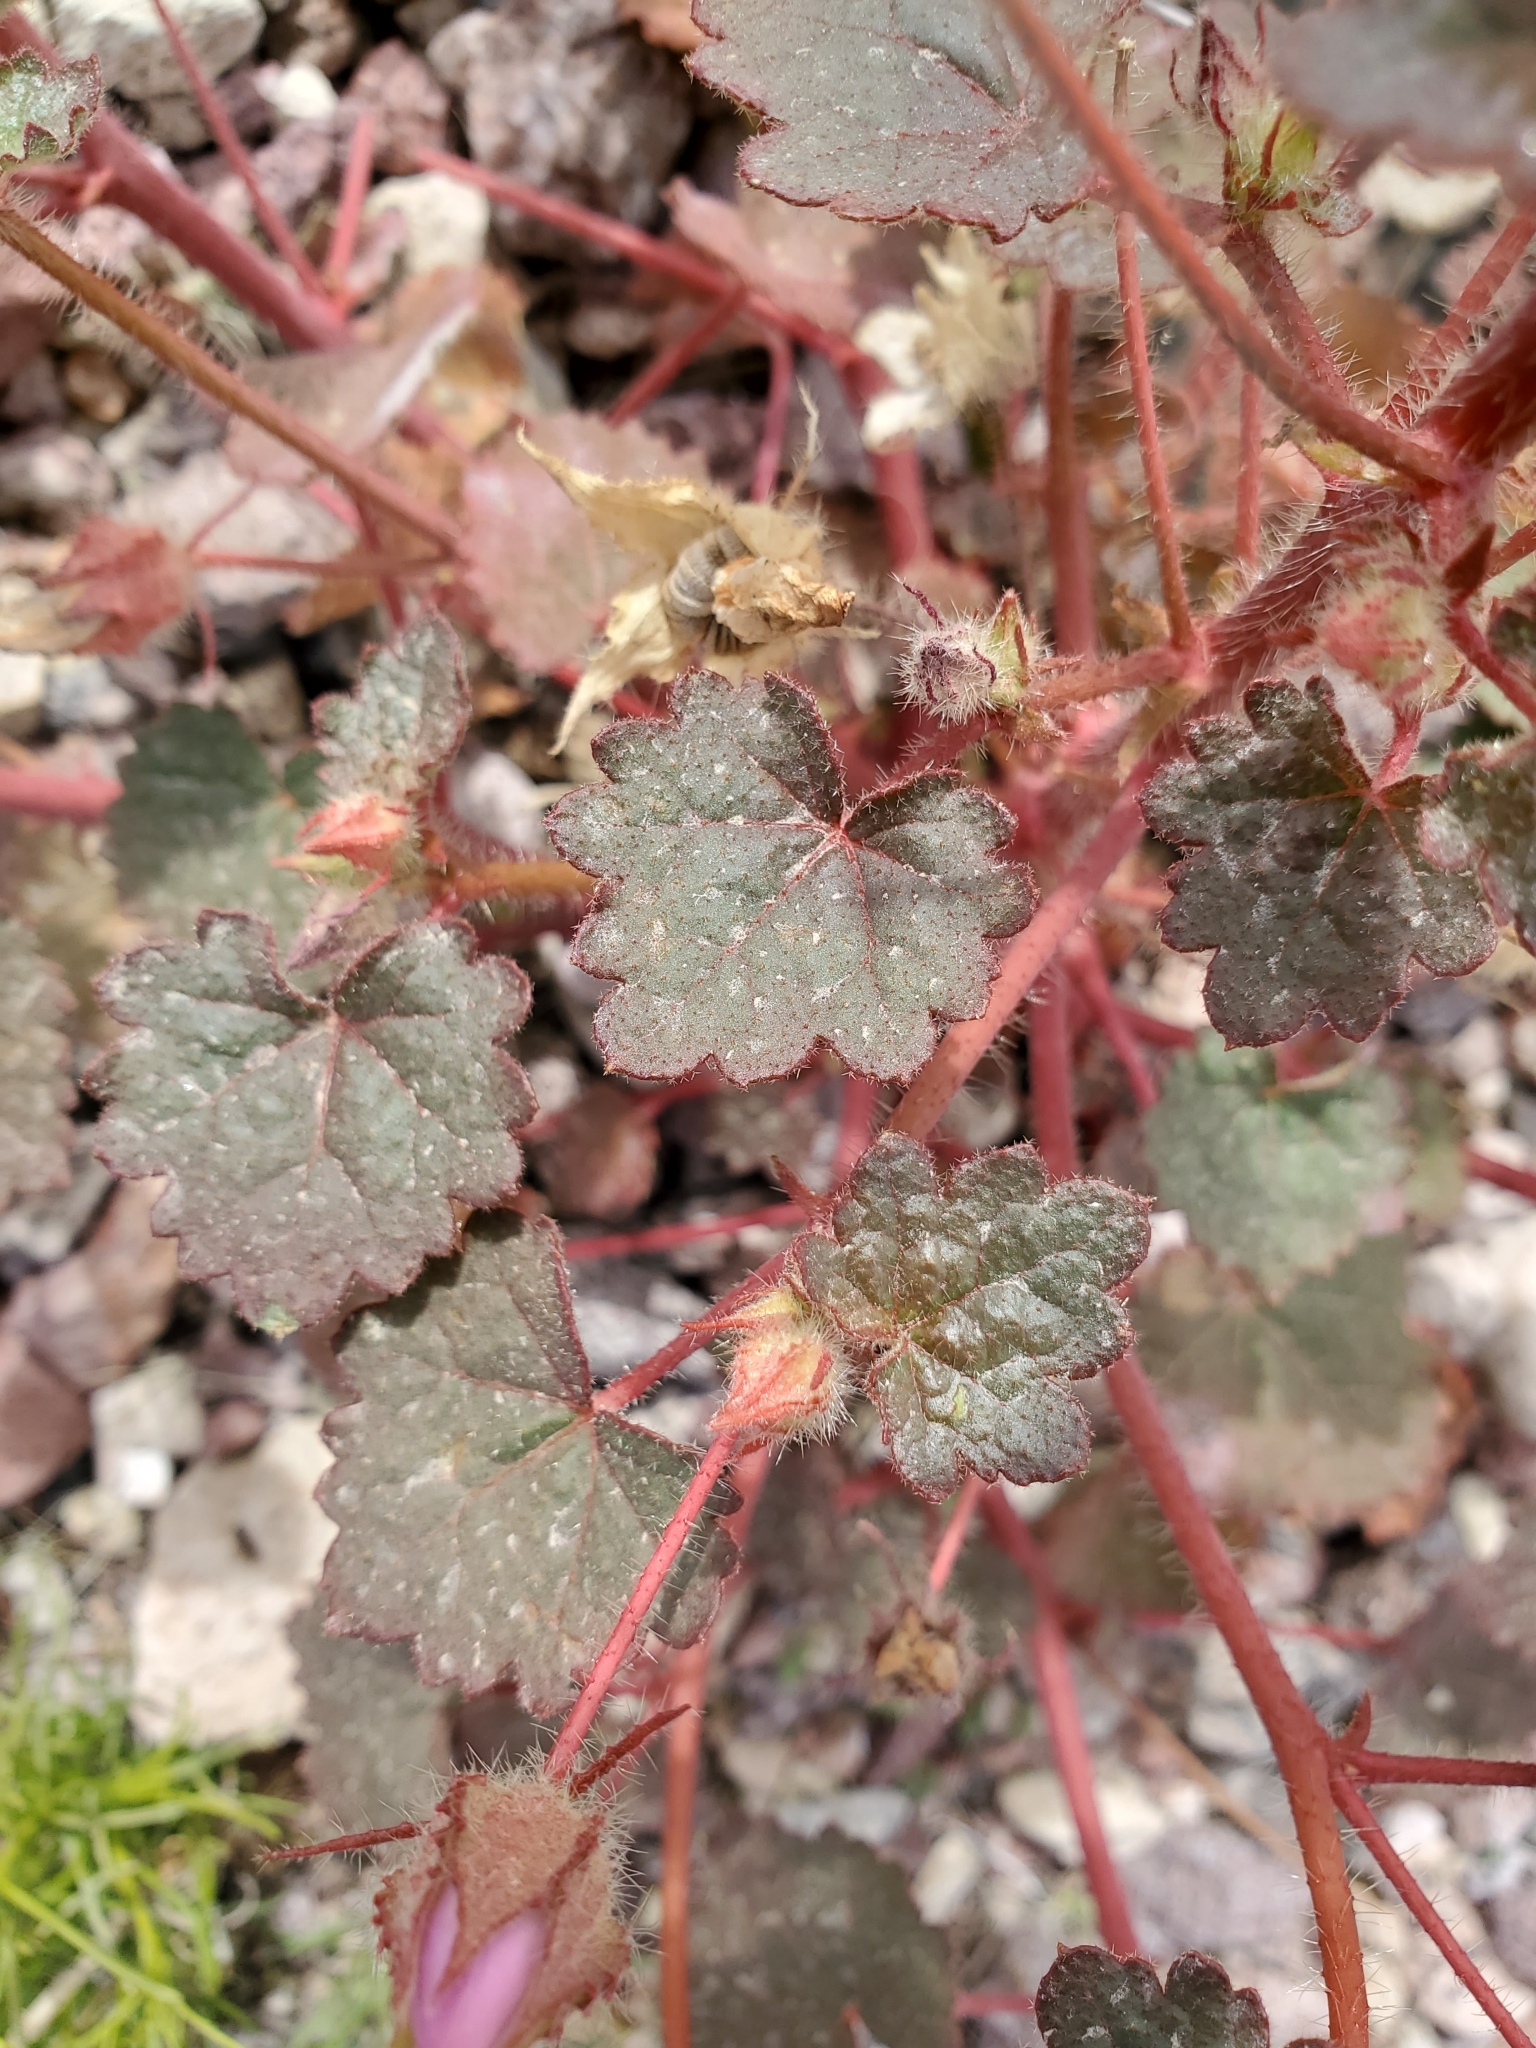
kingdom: Plantae
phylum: Tracheophyta
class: Magnoliopsida
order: Malvales
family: Malvaceae
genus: Eremalche
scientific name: Eremalche rotundifolia
